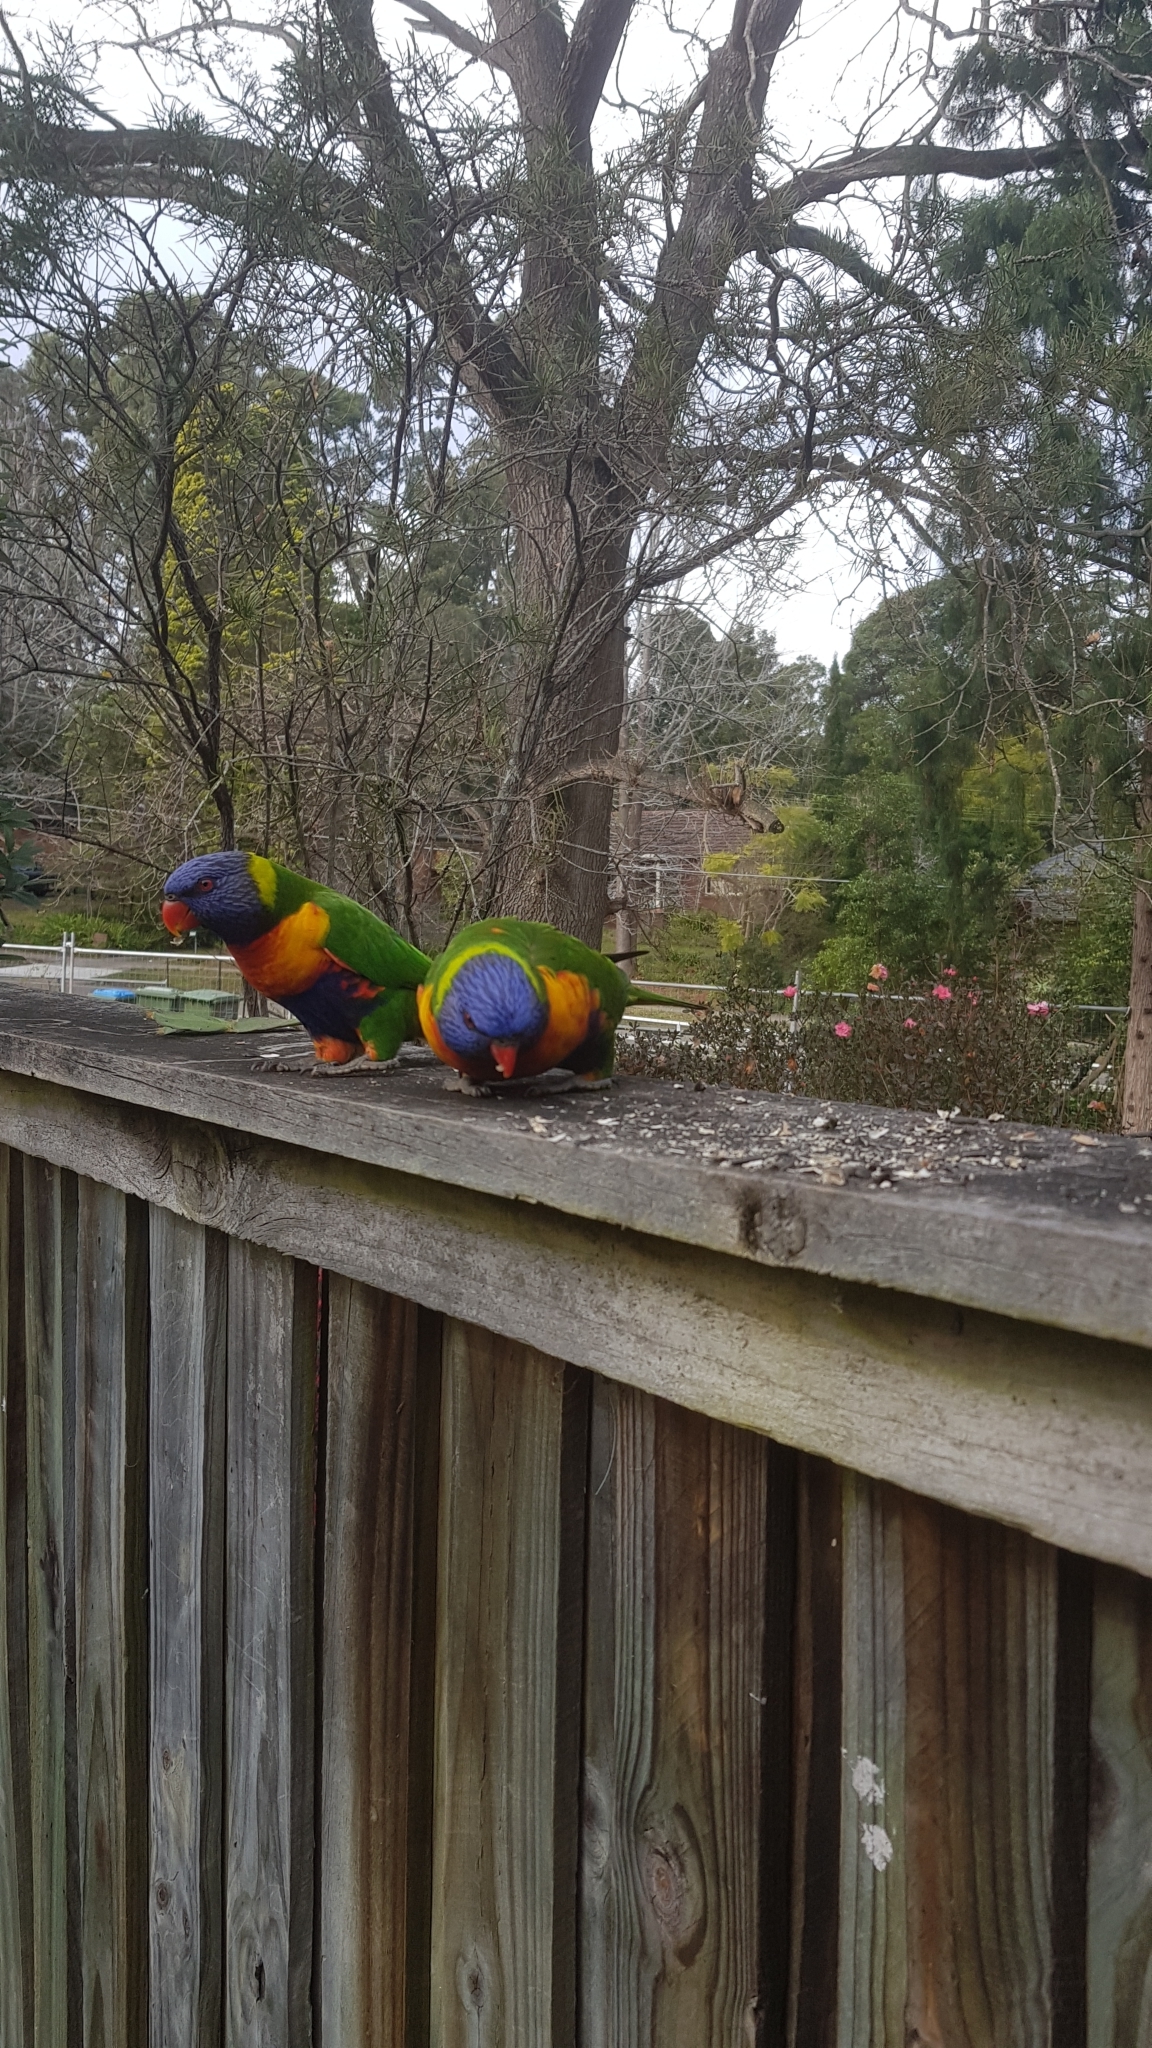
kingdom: Animalia
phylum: Chordata
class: Aves
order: Psittaciformes
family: Psittacidae
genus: Trichoglossus
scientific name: Trichoglossus haematodus
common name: Coconut lorikeet
